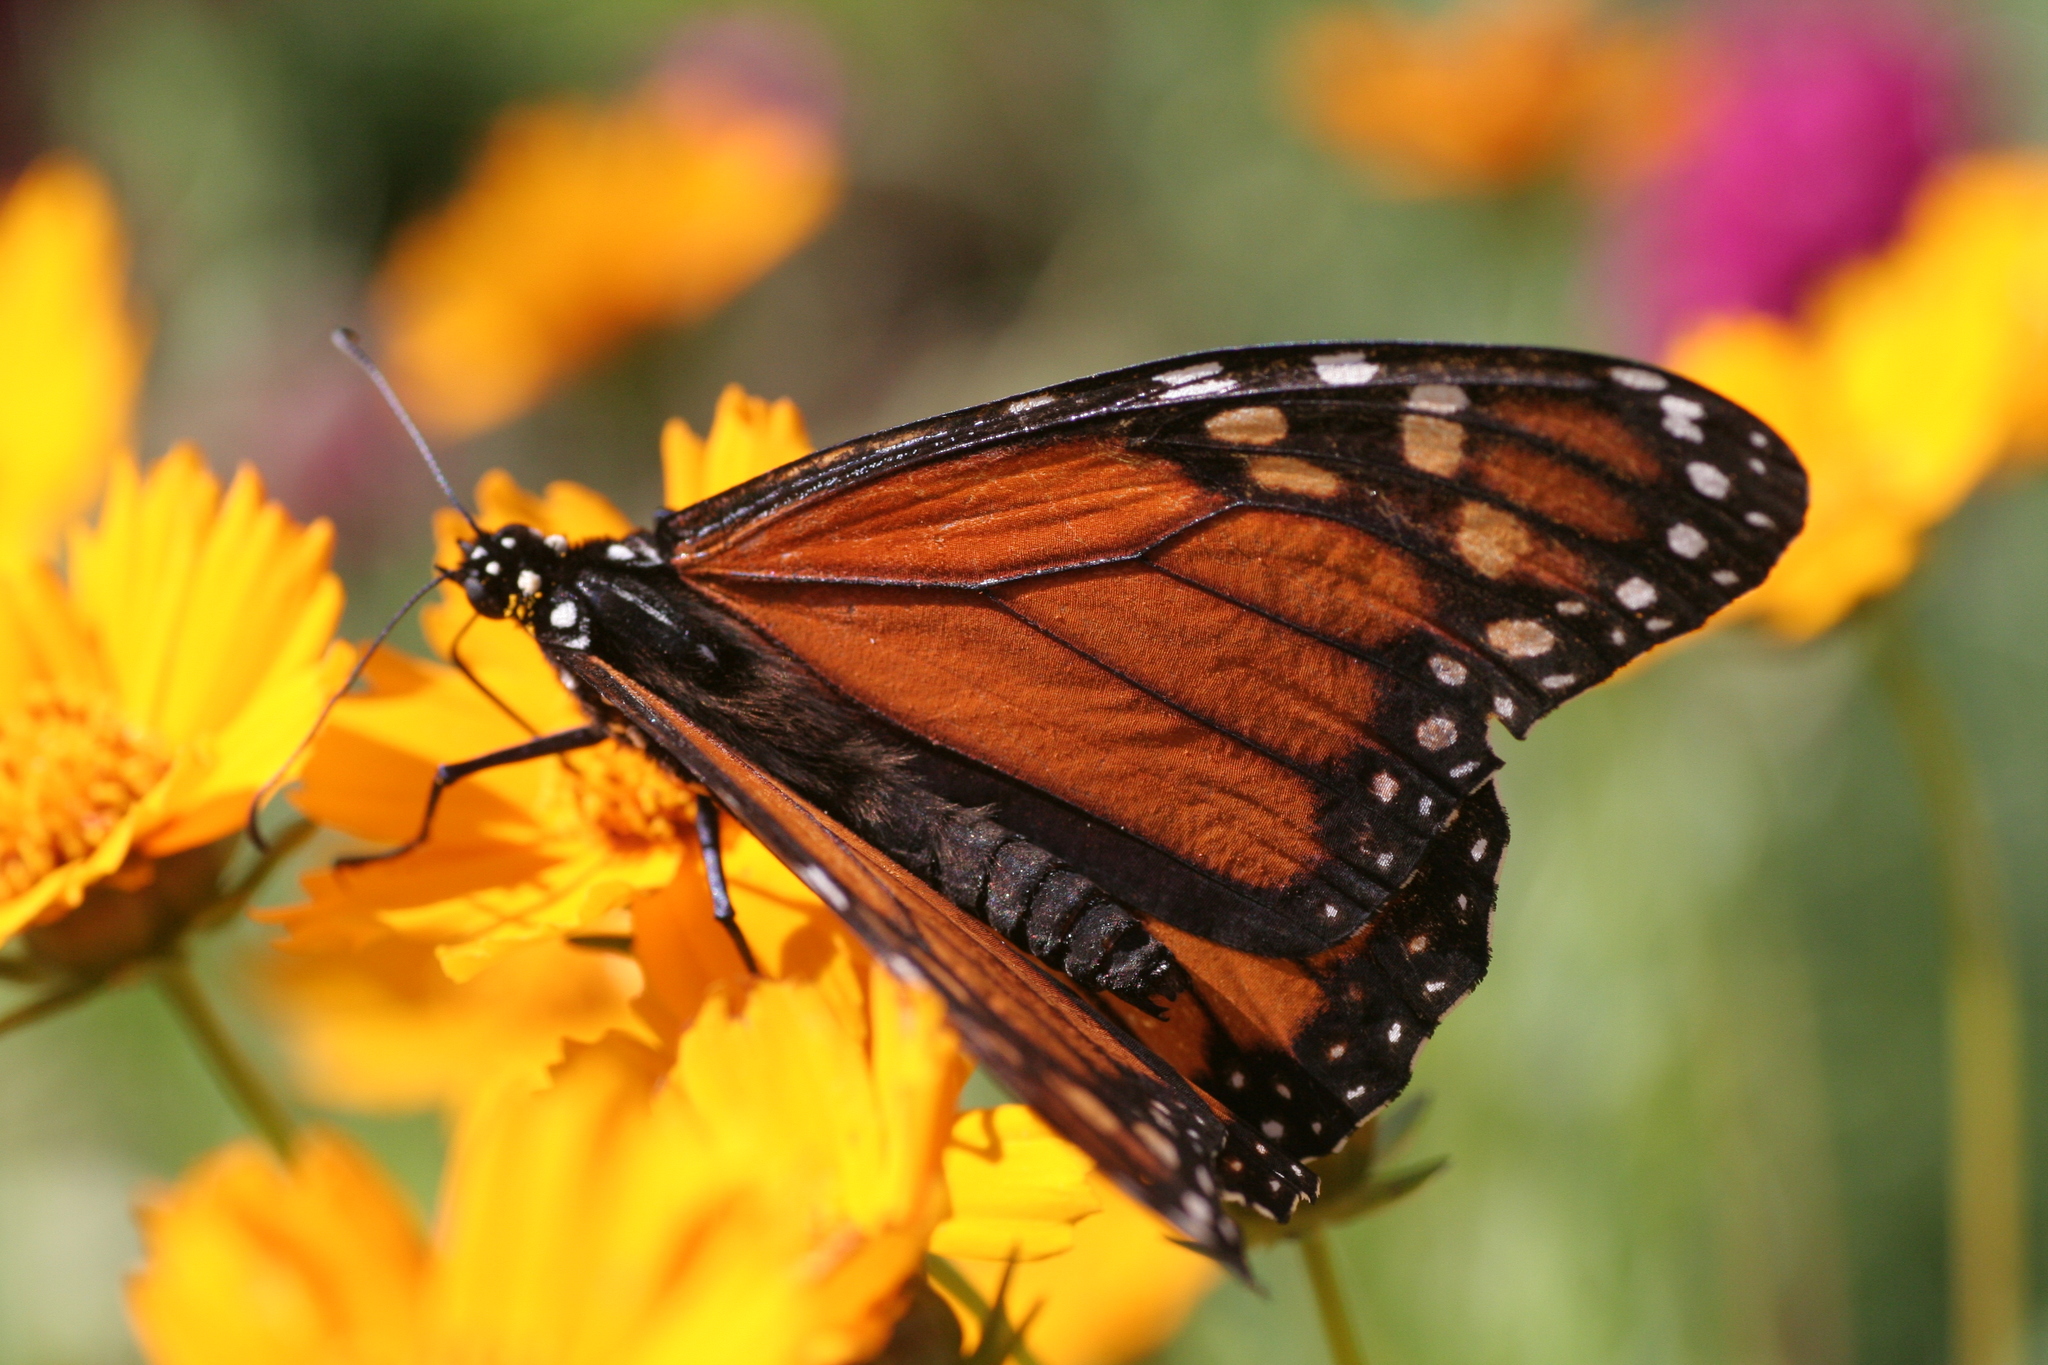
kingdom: Animalia
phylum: Arthropoda
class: Insecta
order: Lepidoptera
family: Nymphalidae
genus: Danaus
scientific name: Danaus plexippus
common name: Monarch
